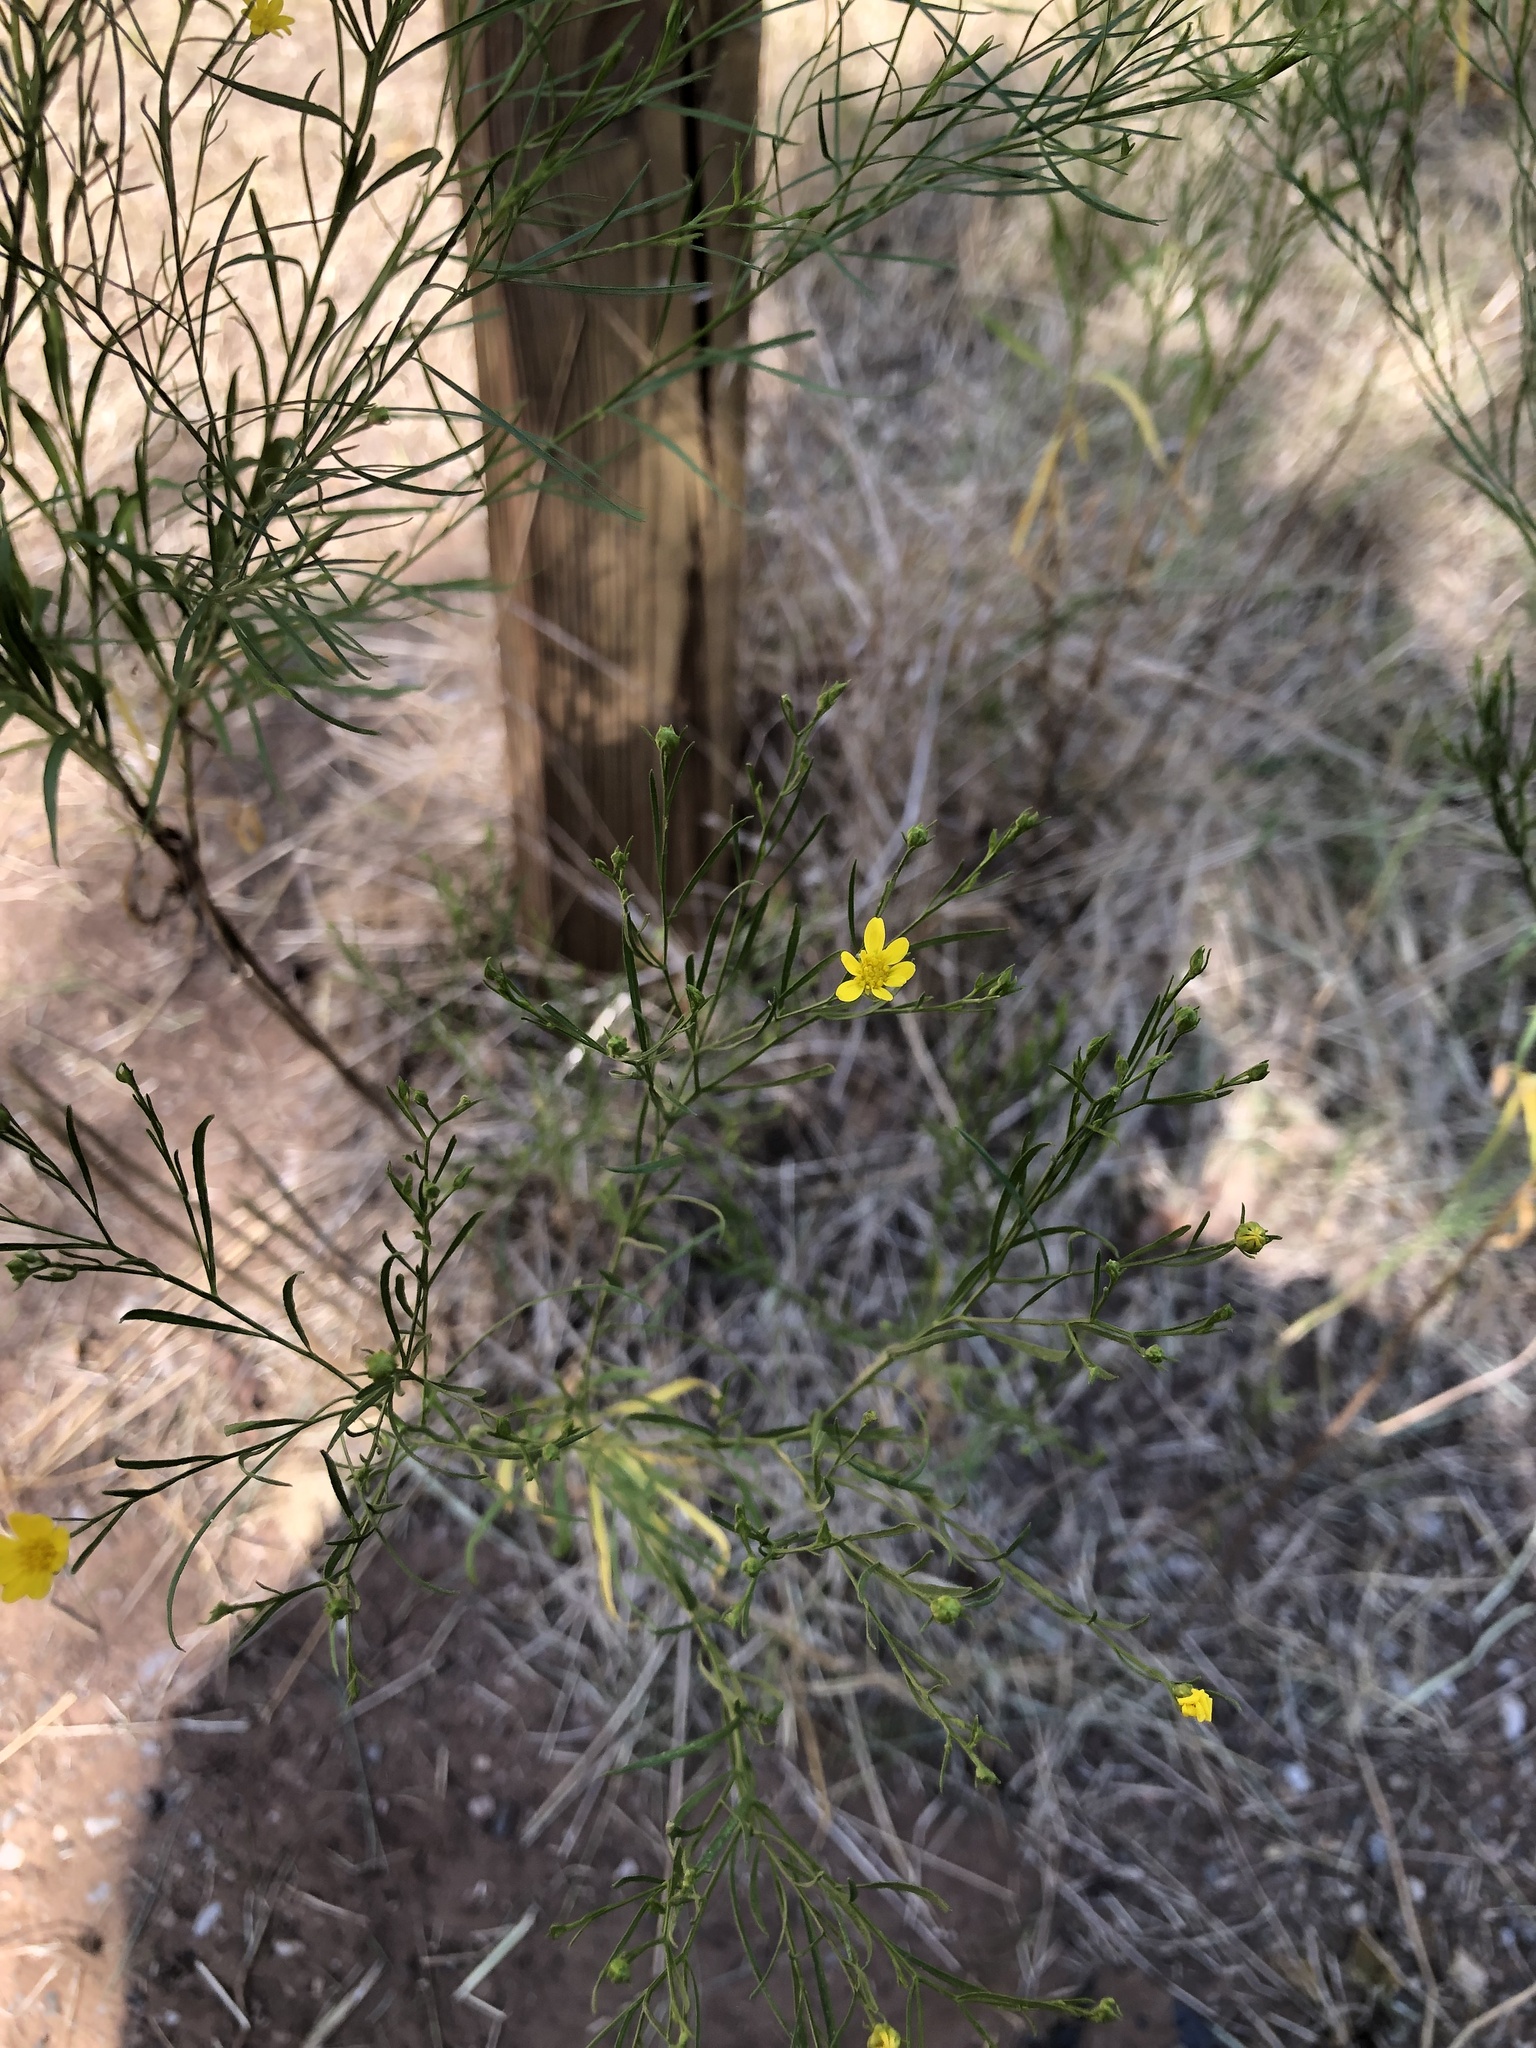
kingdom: Plantae
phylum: Tracheophyta
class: Magnoliopsida
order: Asterales
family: Asteraceae
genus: Amphiachyris
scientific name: Amphiachyris dracunculoides
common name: Broomweed
